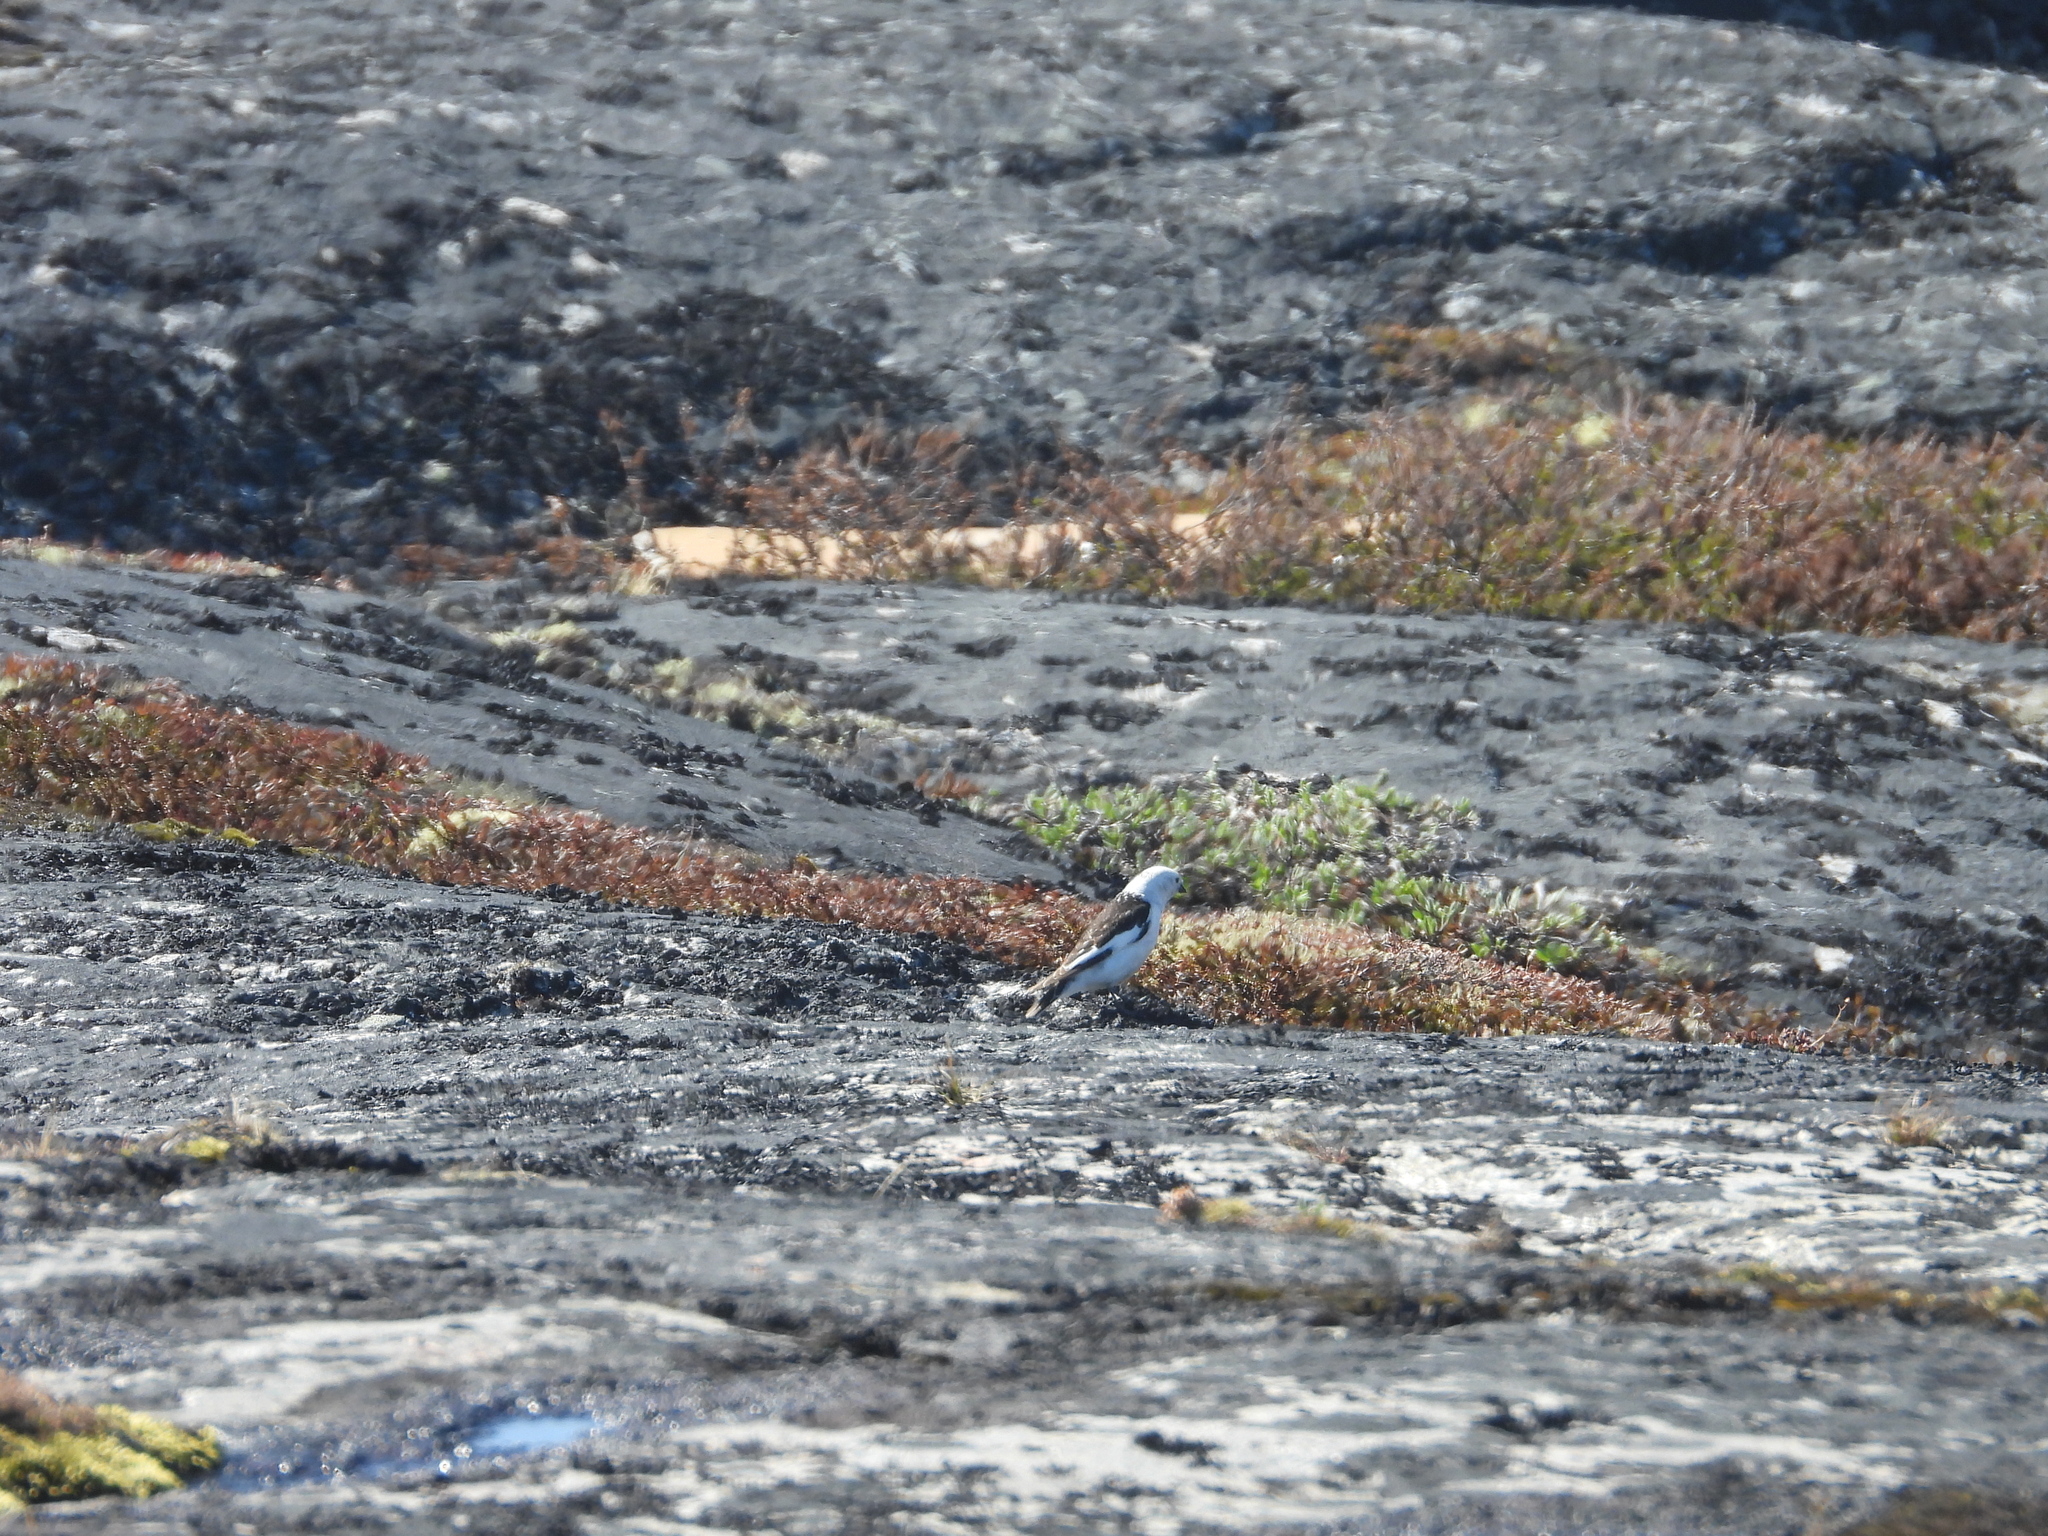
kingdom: Animalia
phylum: Chordata
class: Aves
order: Passeriformes
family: Calcariidae
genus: Plectrophenax
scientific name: Plectrophenax nivalis
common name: Snow bunting
